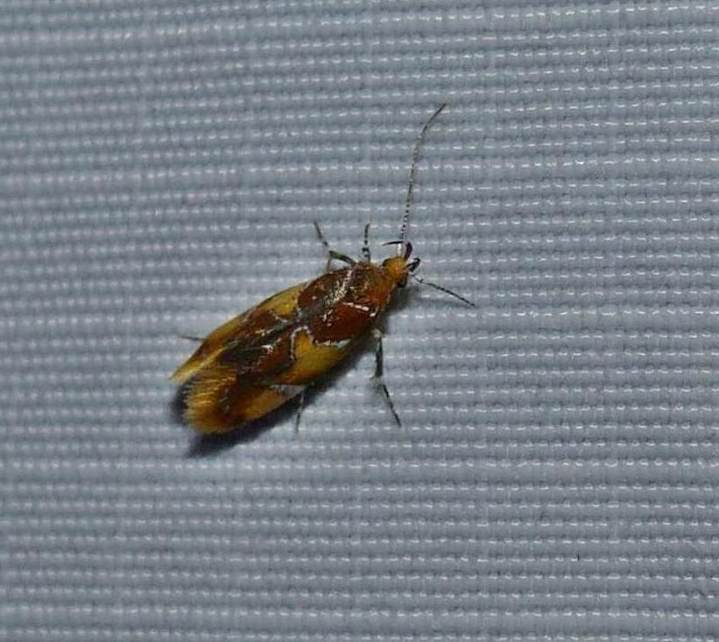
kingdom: Animalia
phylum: Arthropoda
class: Insecta
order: Lepidoptera
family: Oecophoridae
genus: Callima
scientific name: Callima argenticinctella
